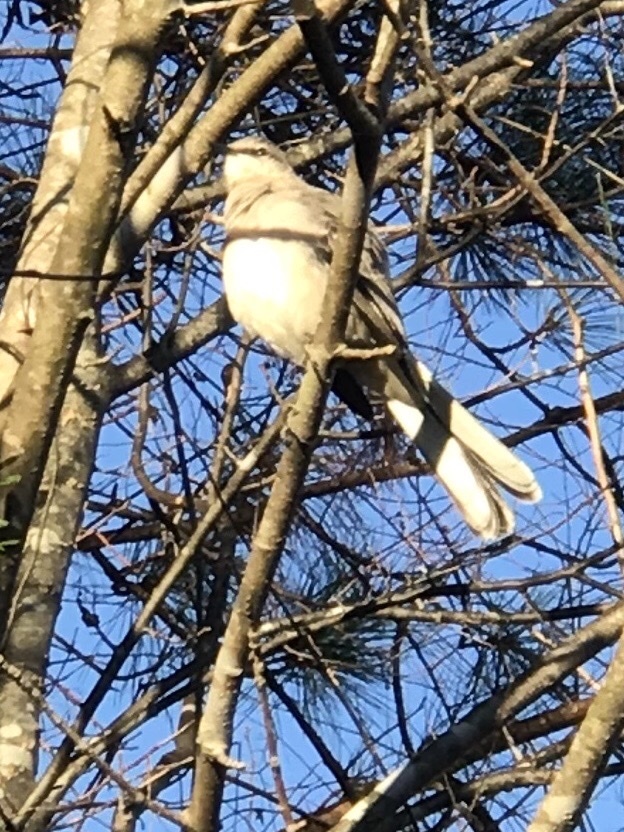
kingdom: Animalia
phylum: Chordata
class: Aves
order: Passeriformes
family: Mimidae
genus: Mimus
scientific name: Mimus polyglottos
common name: Northern mockingbird
